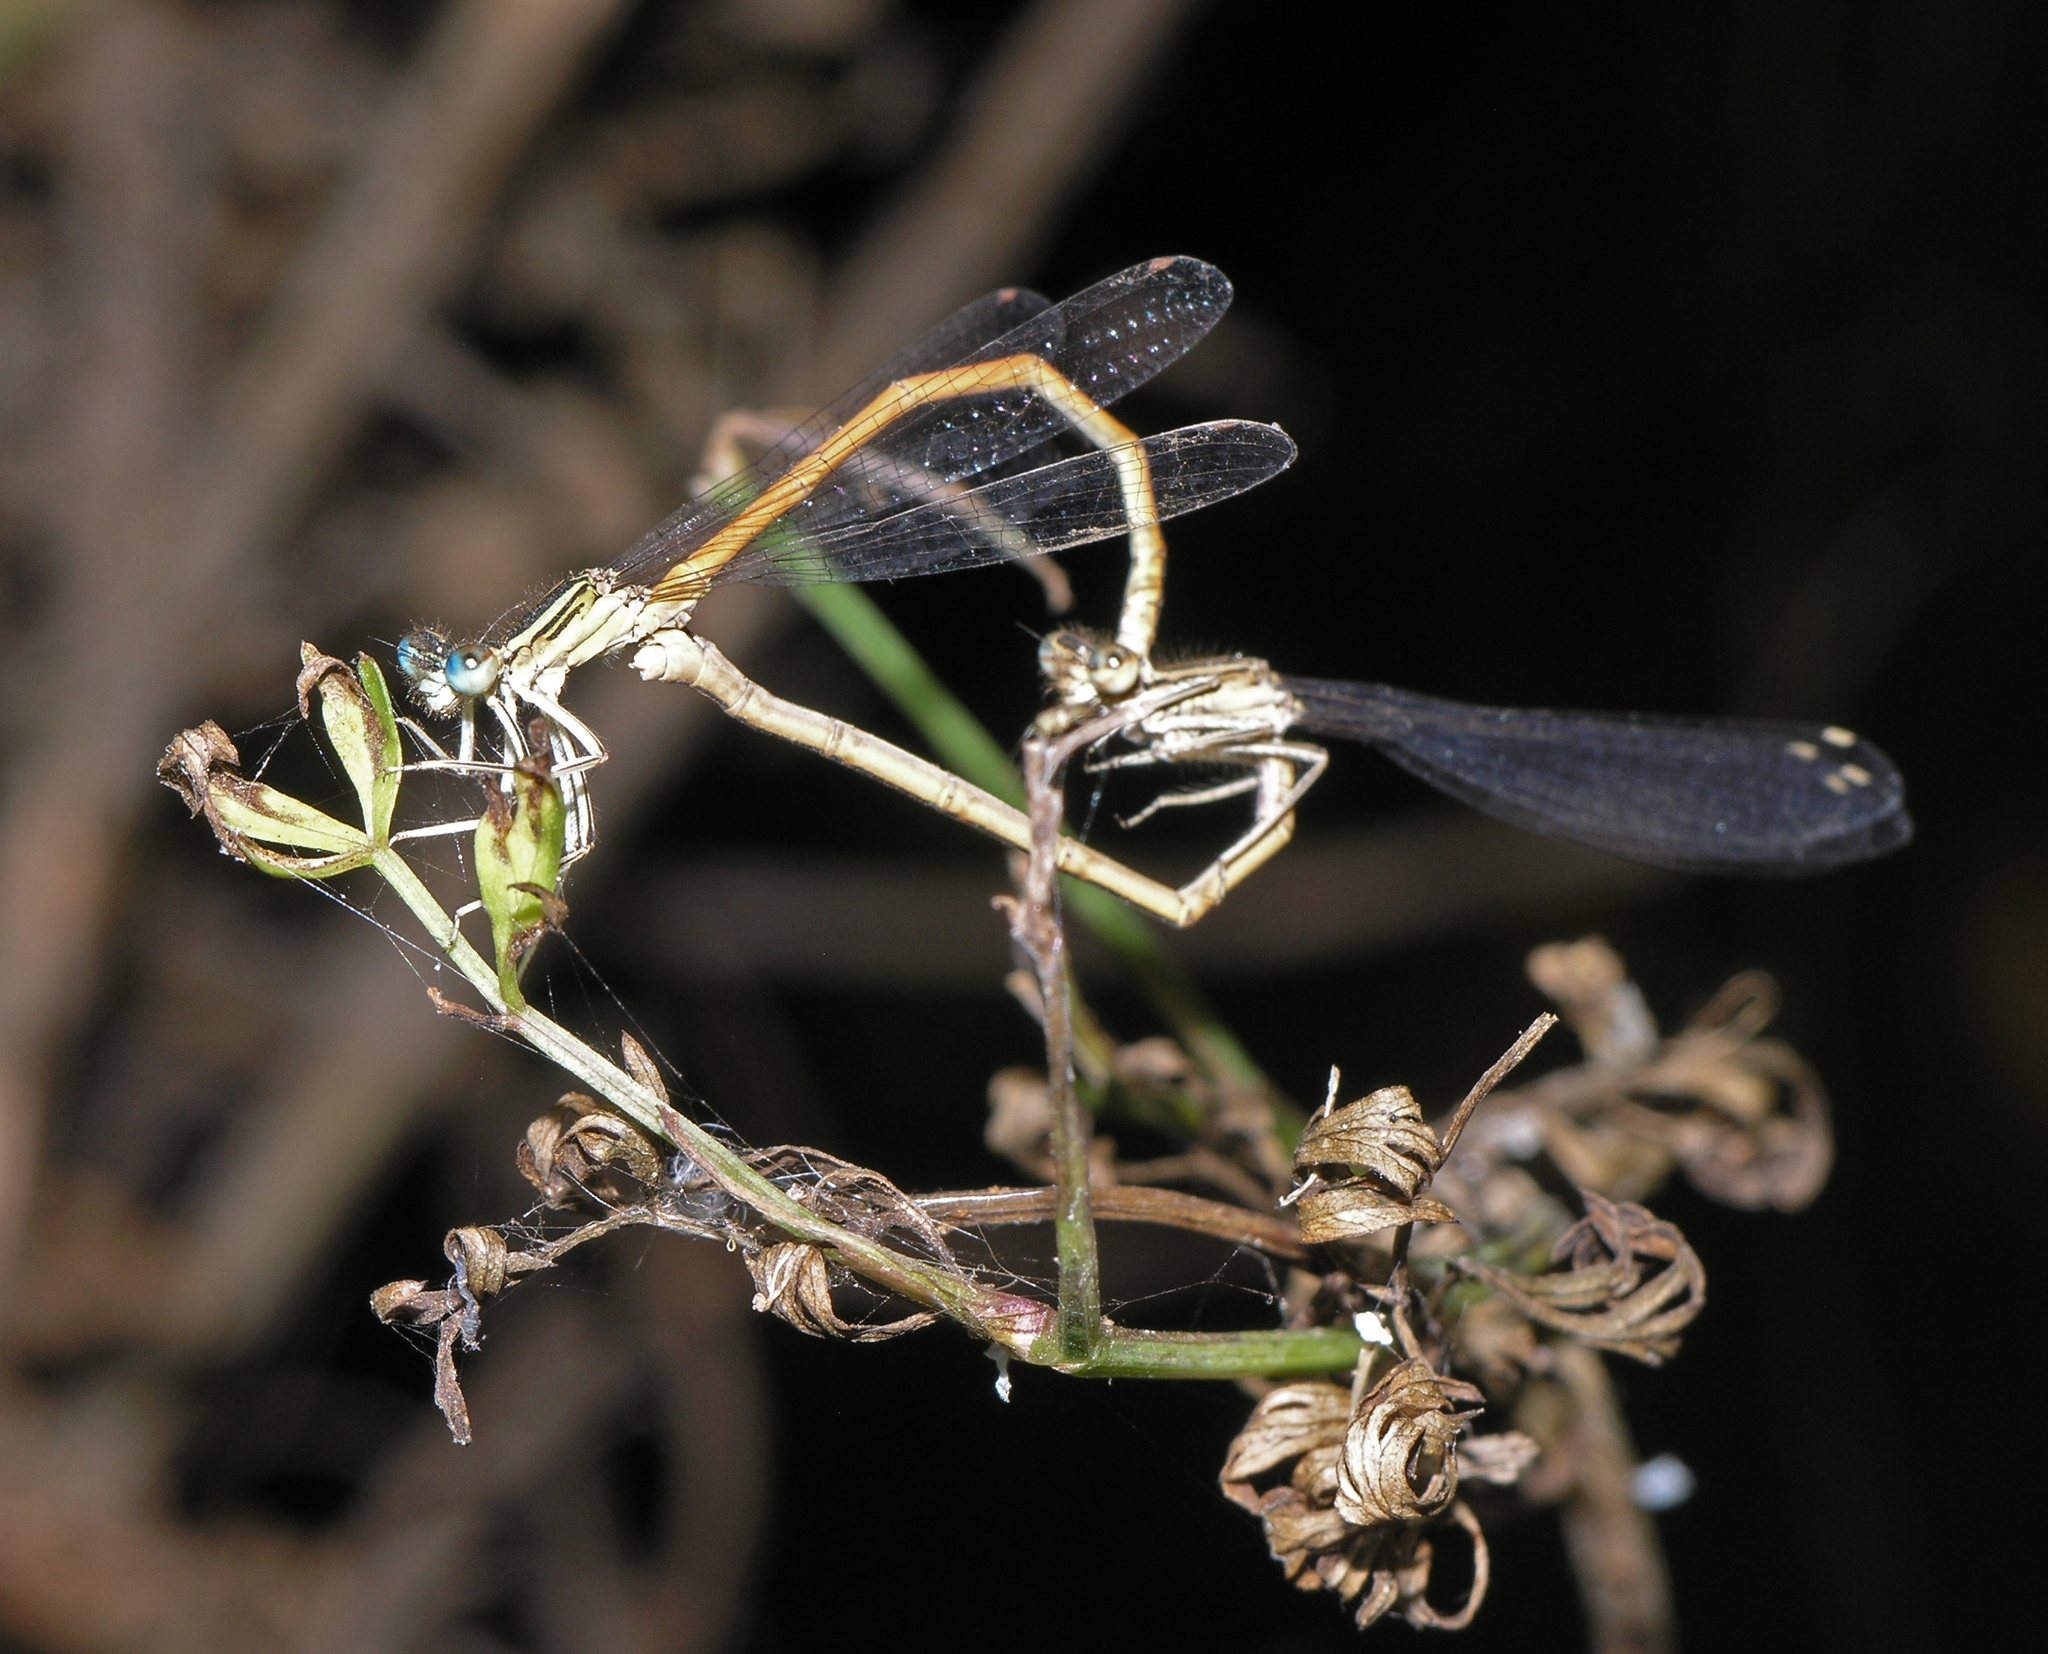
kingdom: Animalia
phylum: Arthropoda
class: Insecta
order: Odonata
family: Platycnemididae
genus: Platycnemis
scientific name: Platycnemis acutipennis
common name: Orange featherleg
